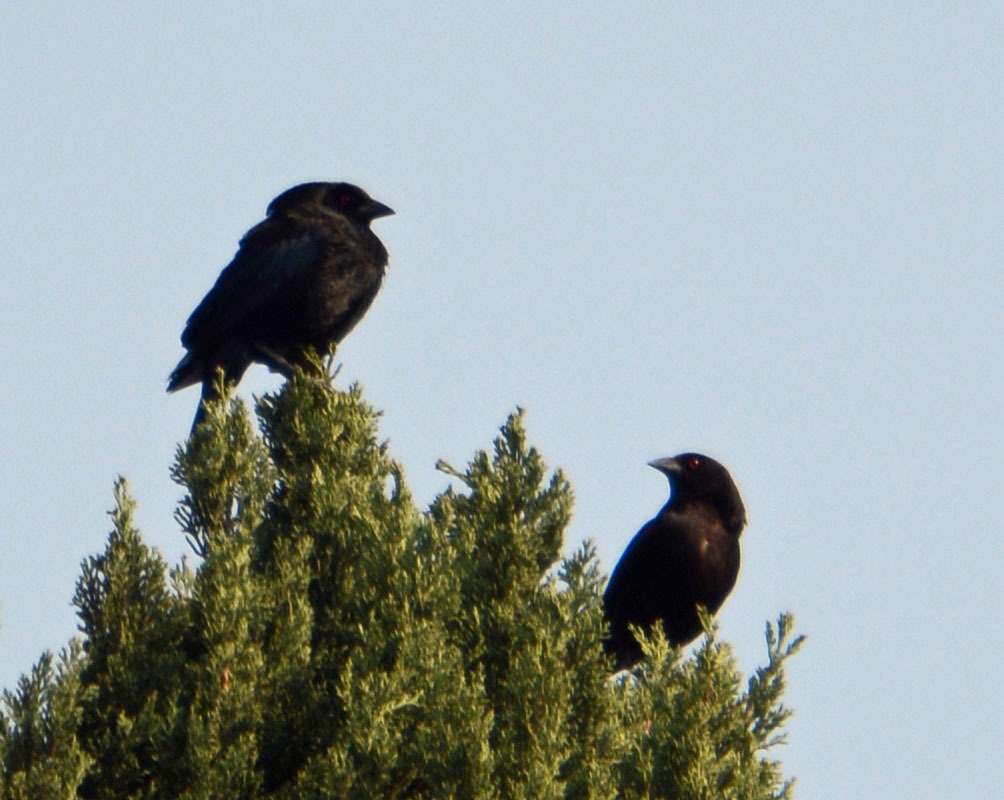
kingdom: Animalia
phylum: Chordata
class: Aves
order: Passeriformes
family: Icteridae
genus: Molothrus
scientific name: Molothrus aeneus
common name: Bronzed cowbird
